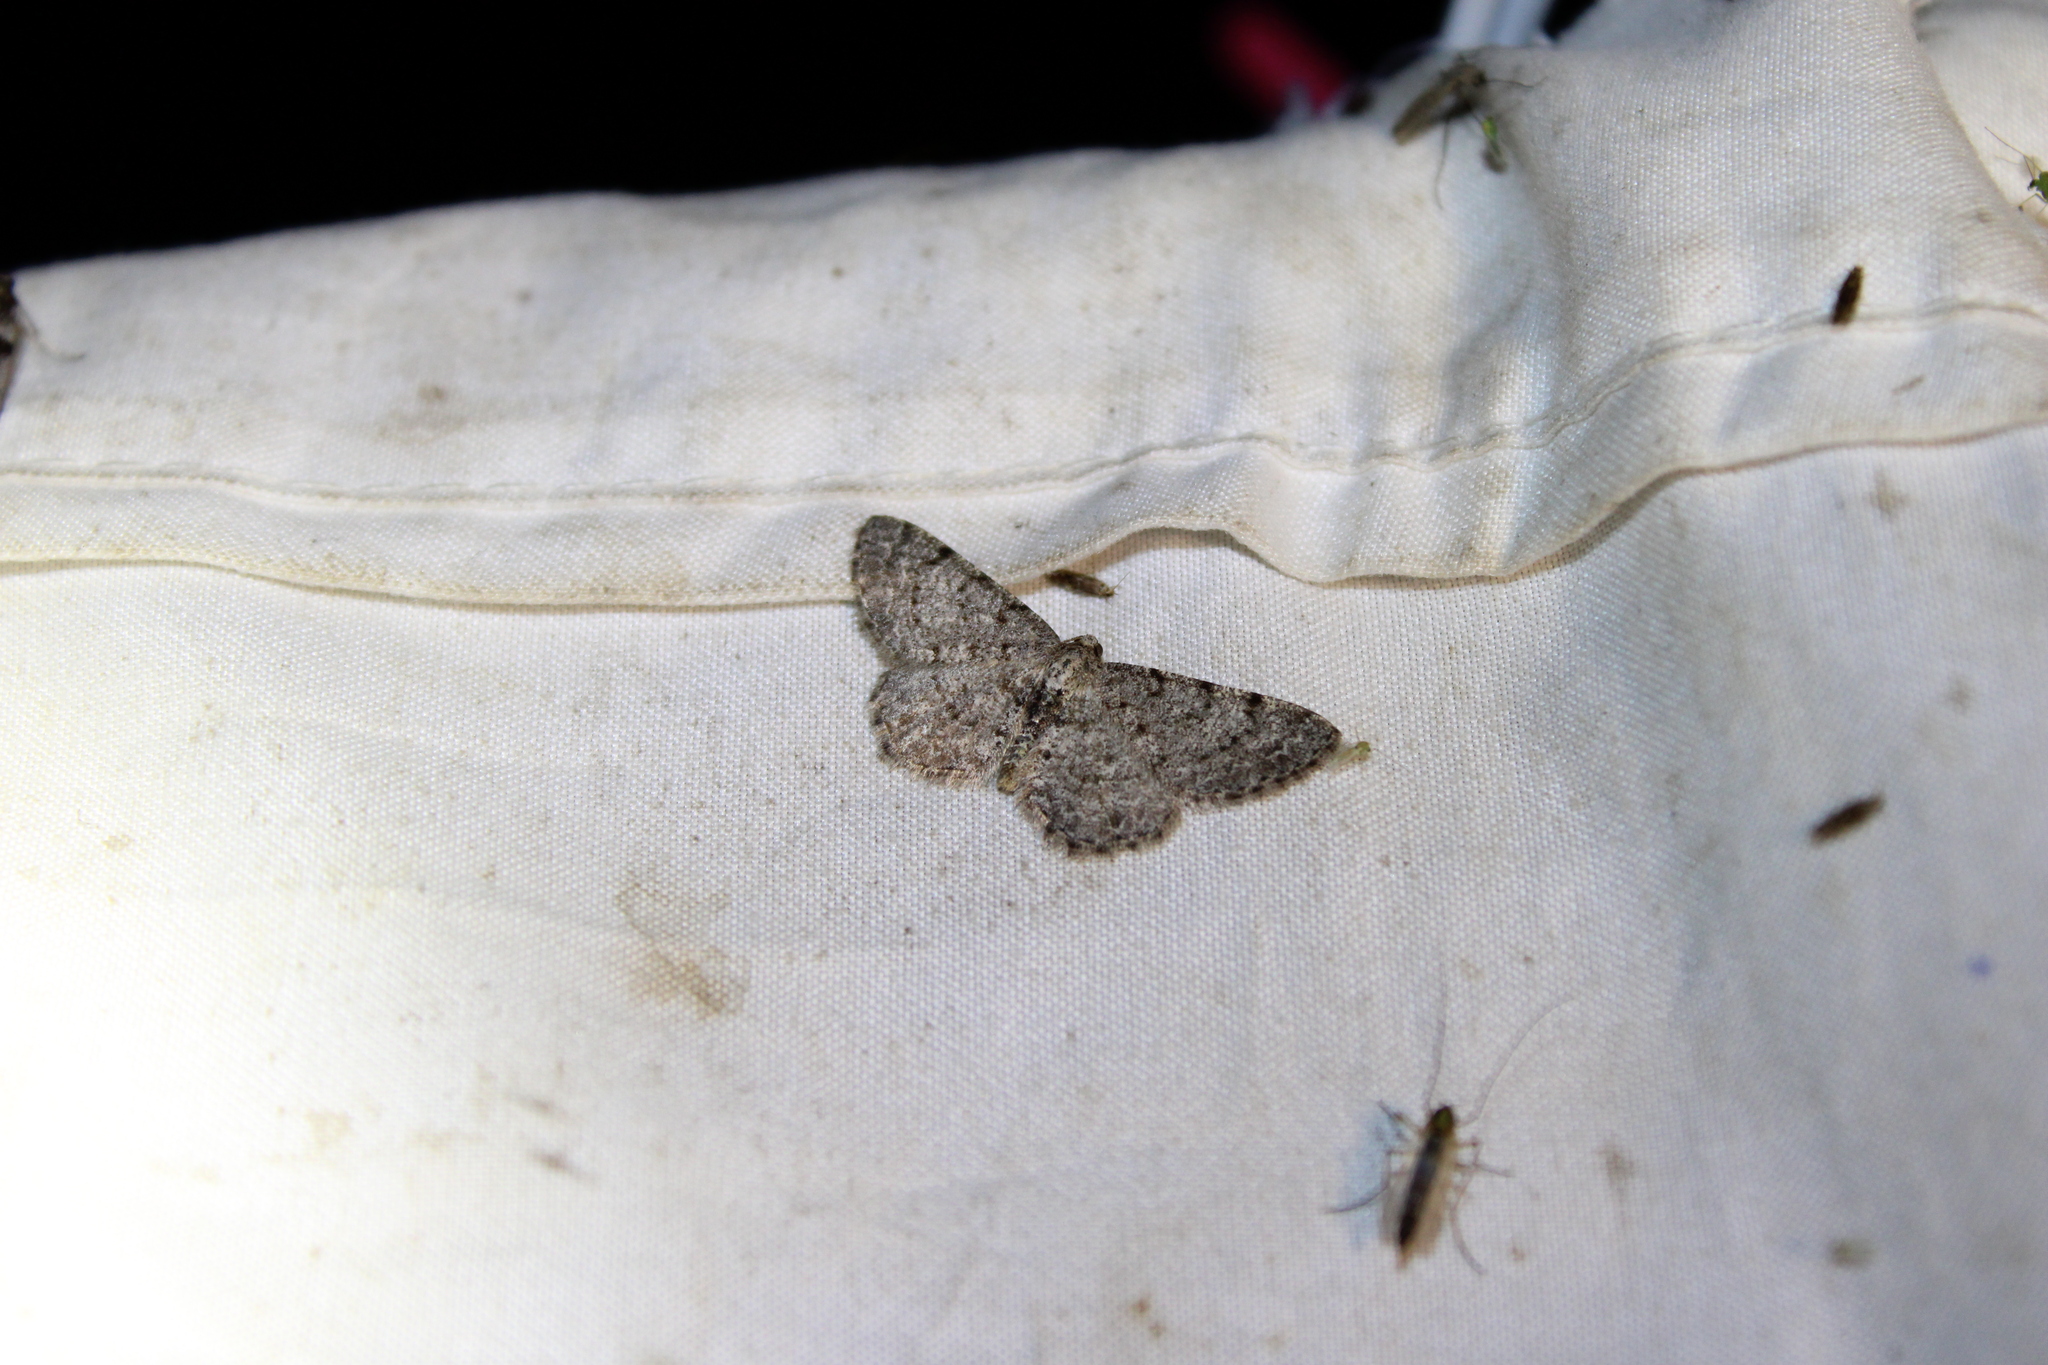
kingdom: Animalia
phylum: Arthropoda
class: Insecta
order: Lepidoptera
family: Geometridae
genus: Aethalura
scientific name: Aethalura intertexta
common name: Four-barred gray
